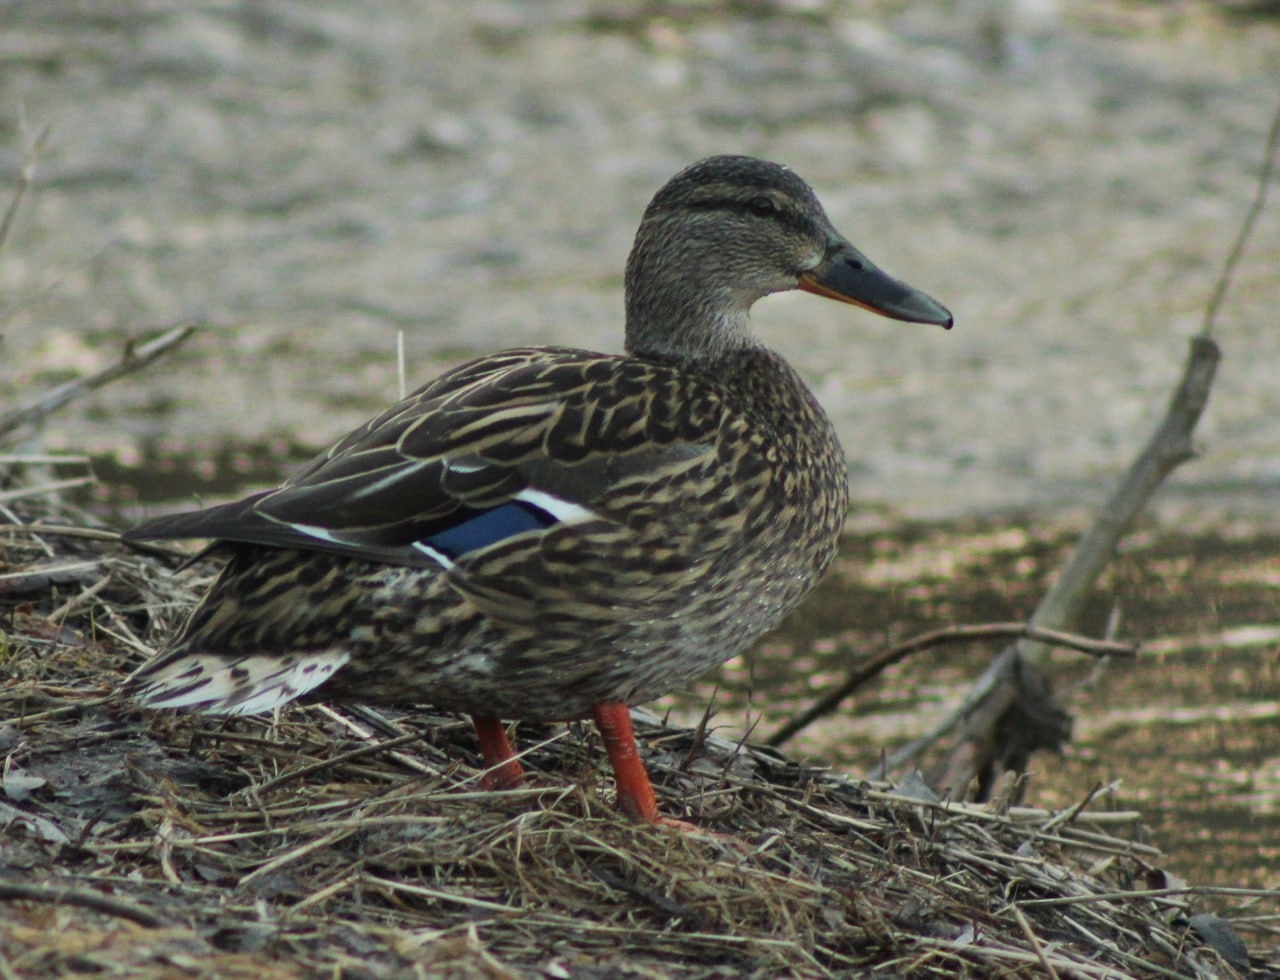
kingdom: Animalia
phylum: Chordata
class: Aves
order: Anseriformes
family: Anatidae
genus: Anas
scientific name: Anas platyrhynchos
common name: Mallard
